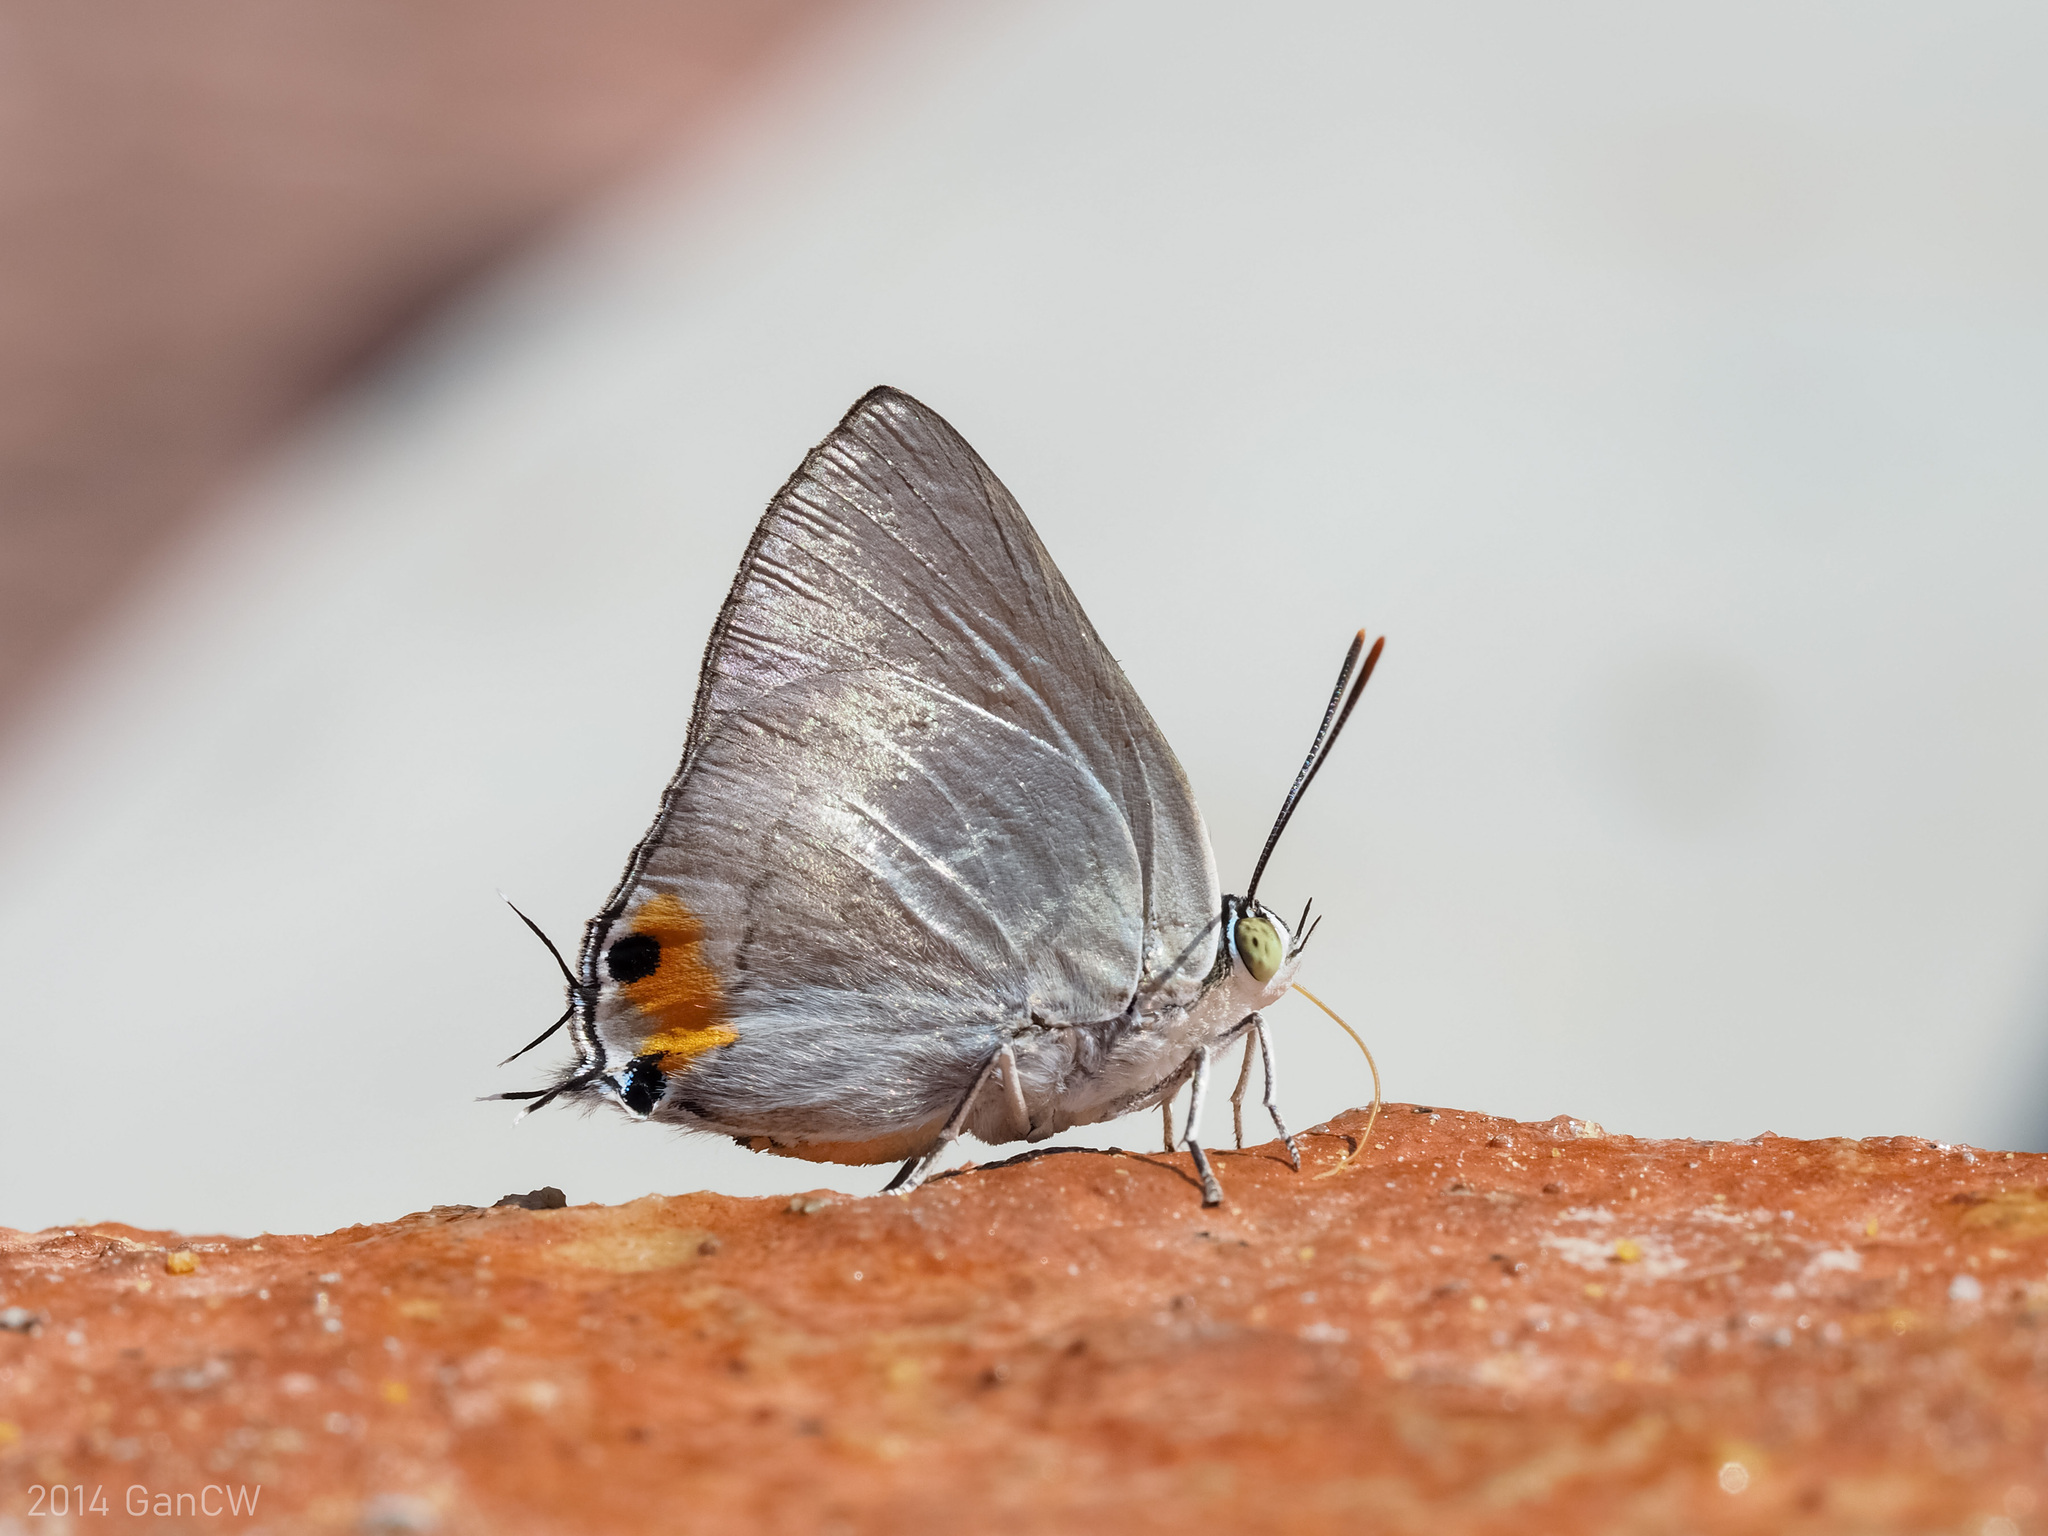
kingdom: Animalia
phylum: Arthropoda
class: Insecta
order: Lepidoptera
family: Lycaenidae
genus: Ancema
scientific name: Ancema blanka
